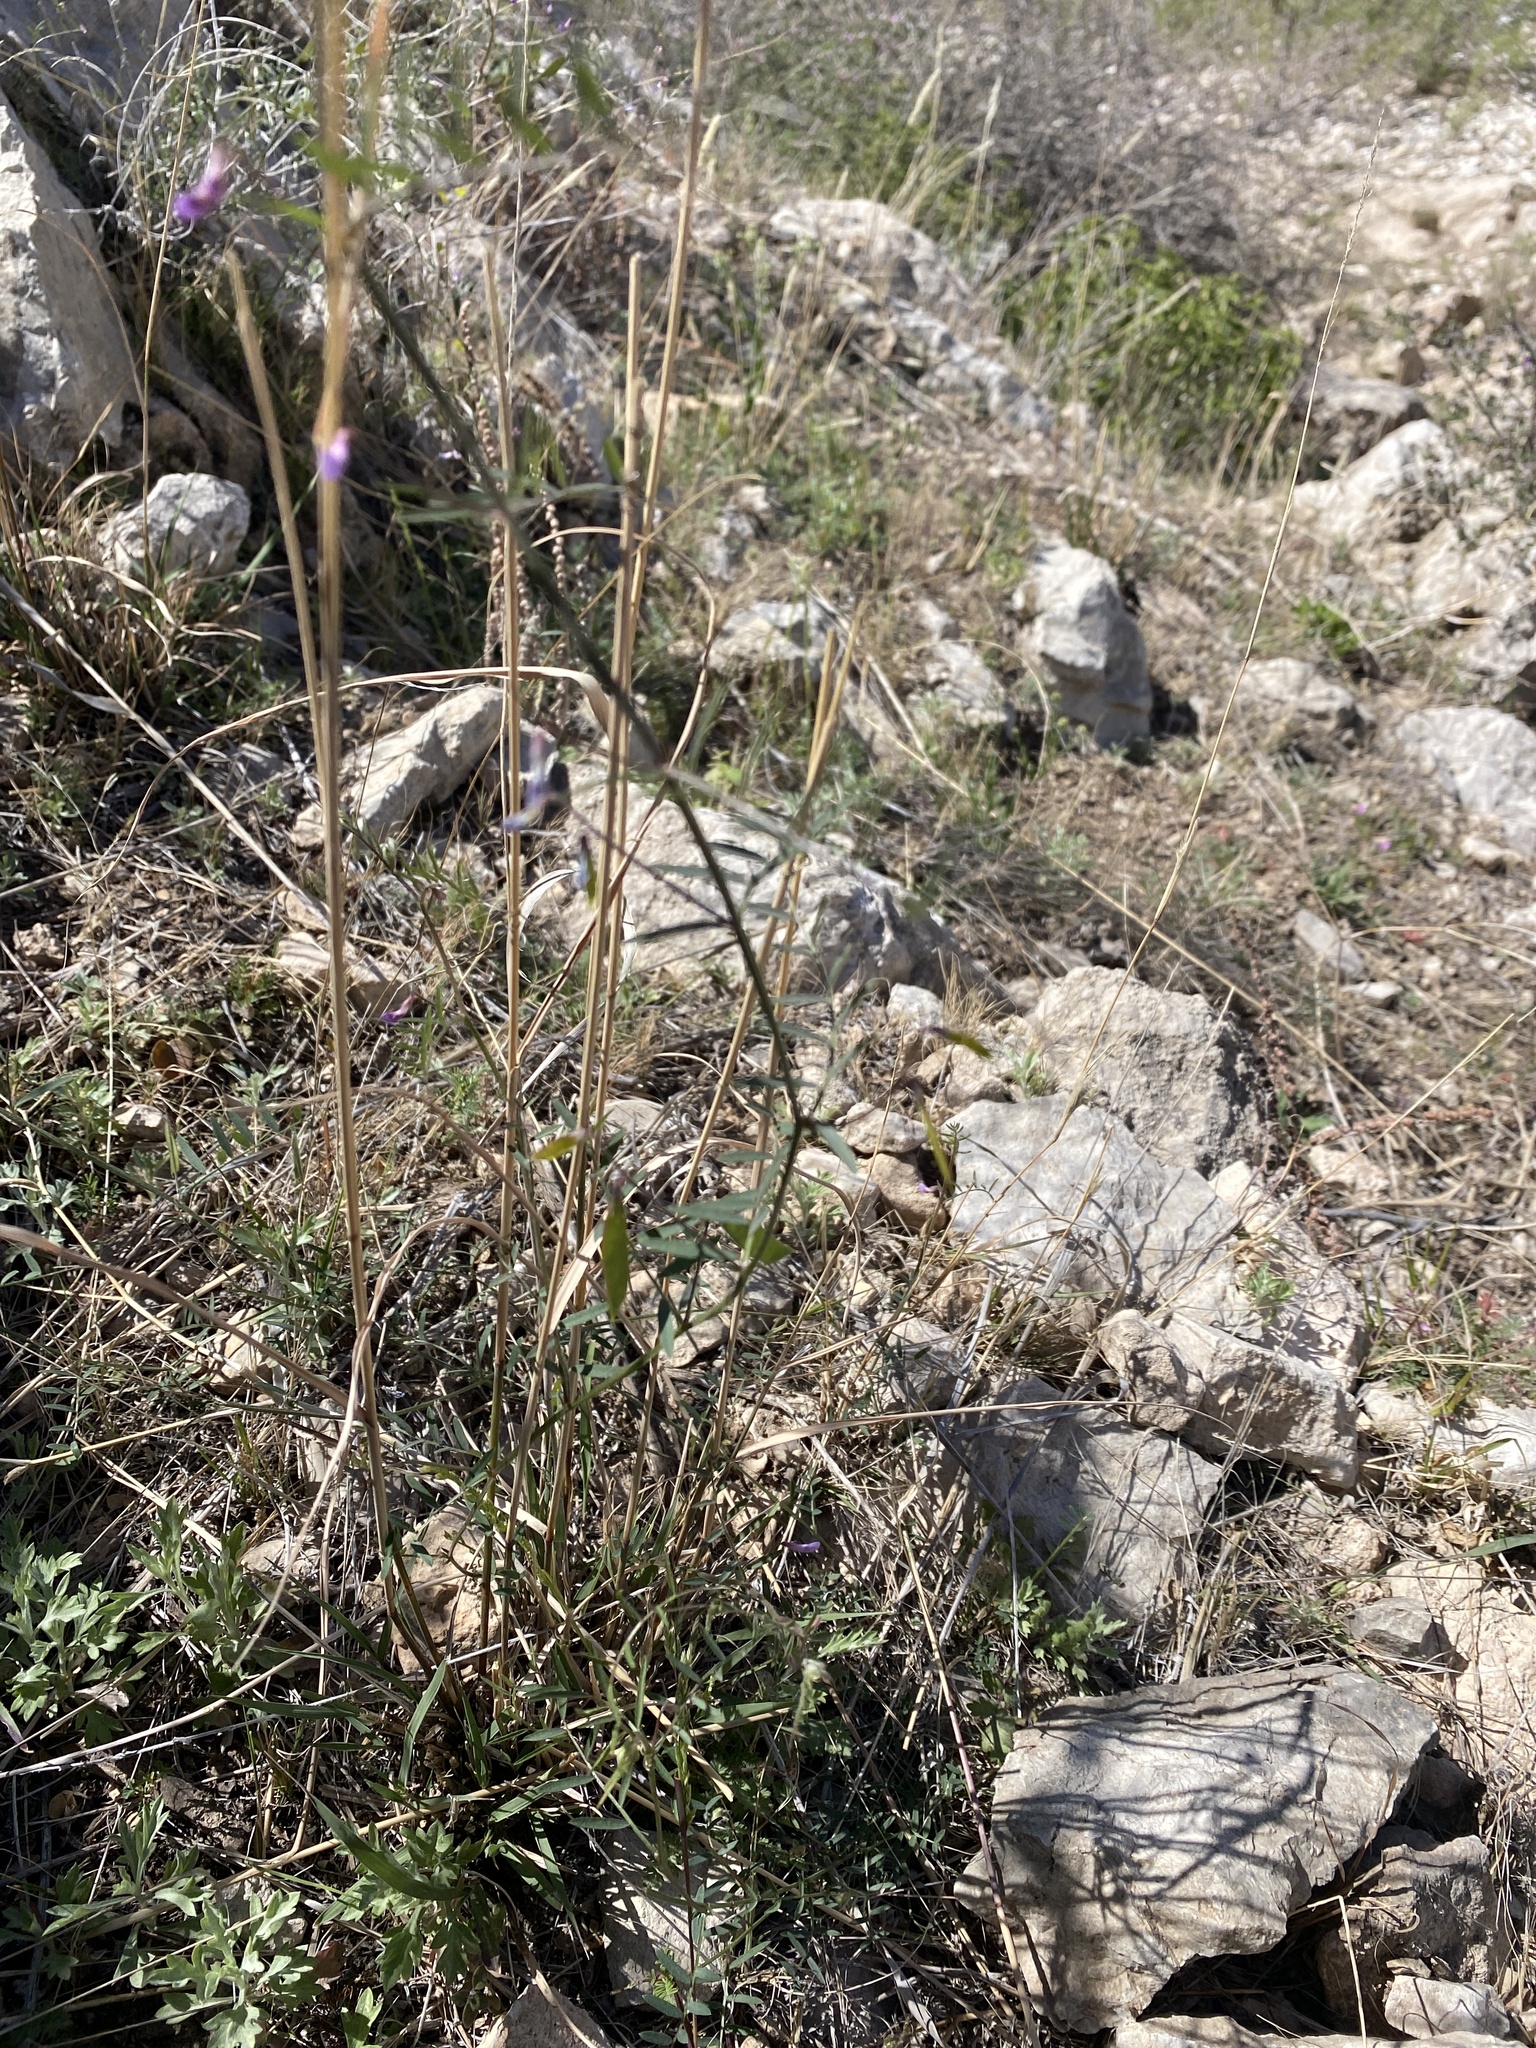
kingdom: Plantae
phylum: Tracheophyta
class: Magnoliopsida
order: Fabales
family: Fabaceae
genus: Vicia
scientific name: Vicia ludoviciana
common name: Louisiana vetch
